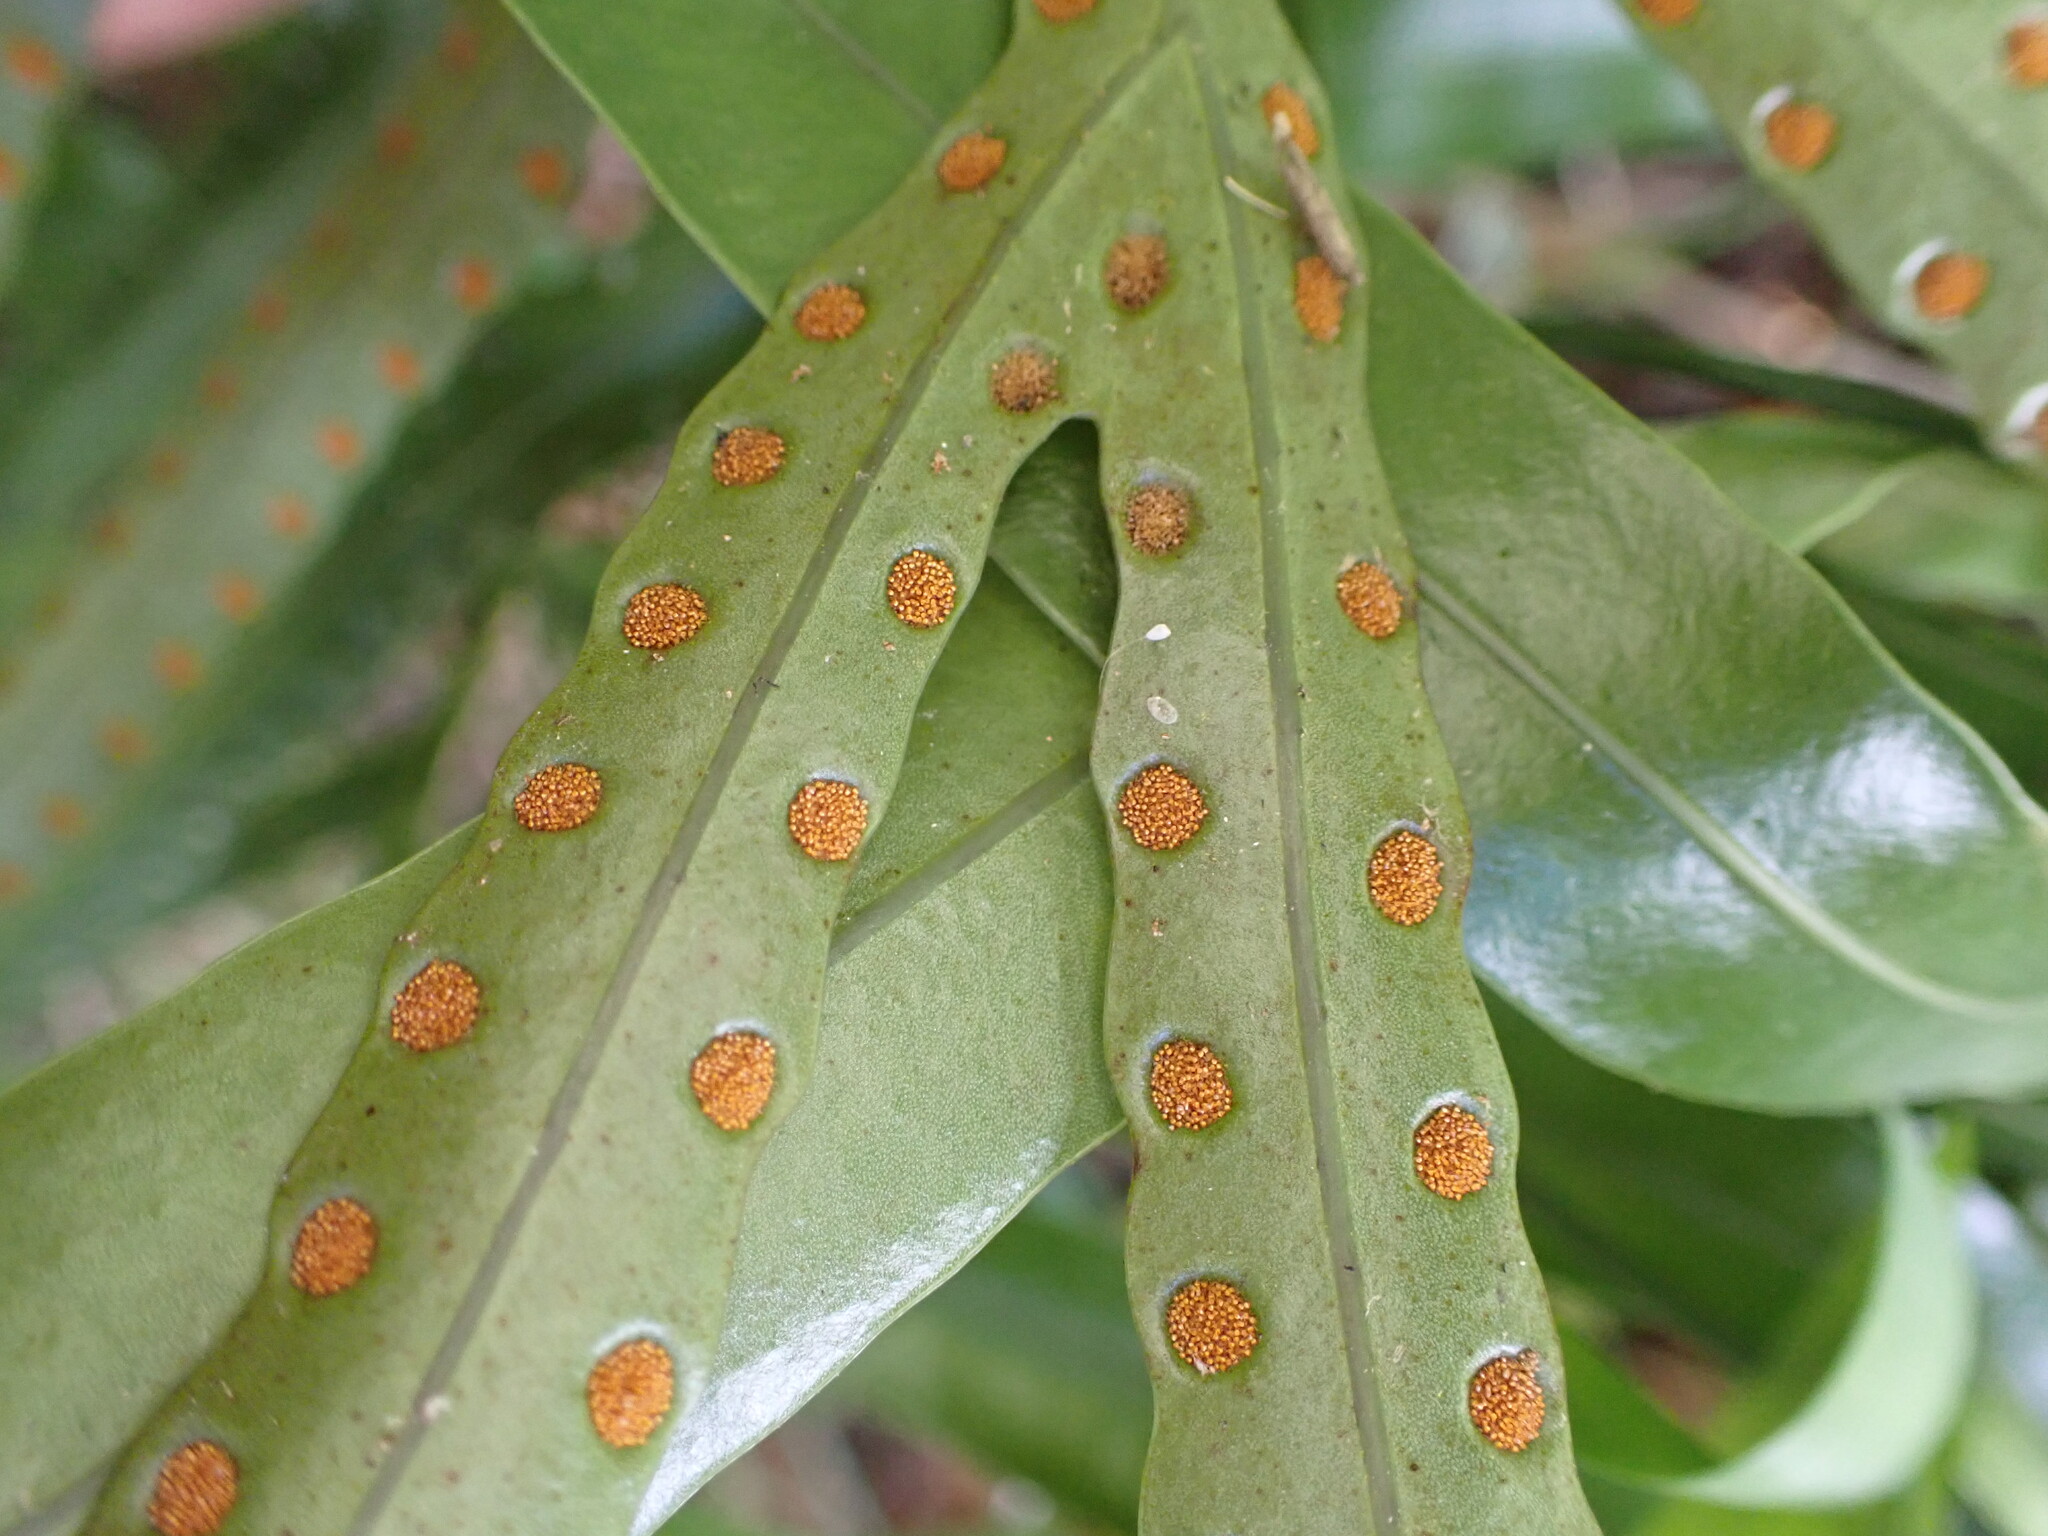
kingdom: Plantae
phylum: Tracheophyta
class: Polypodiopsida
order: Polypodiales
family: Polypodiaceae
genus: Lecanopteris
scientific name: Lecanopteris pustulata
